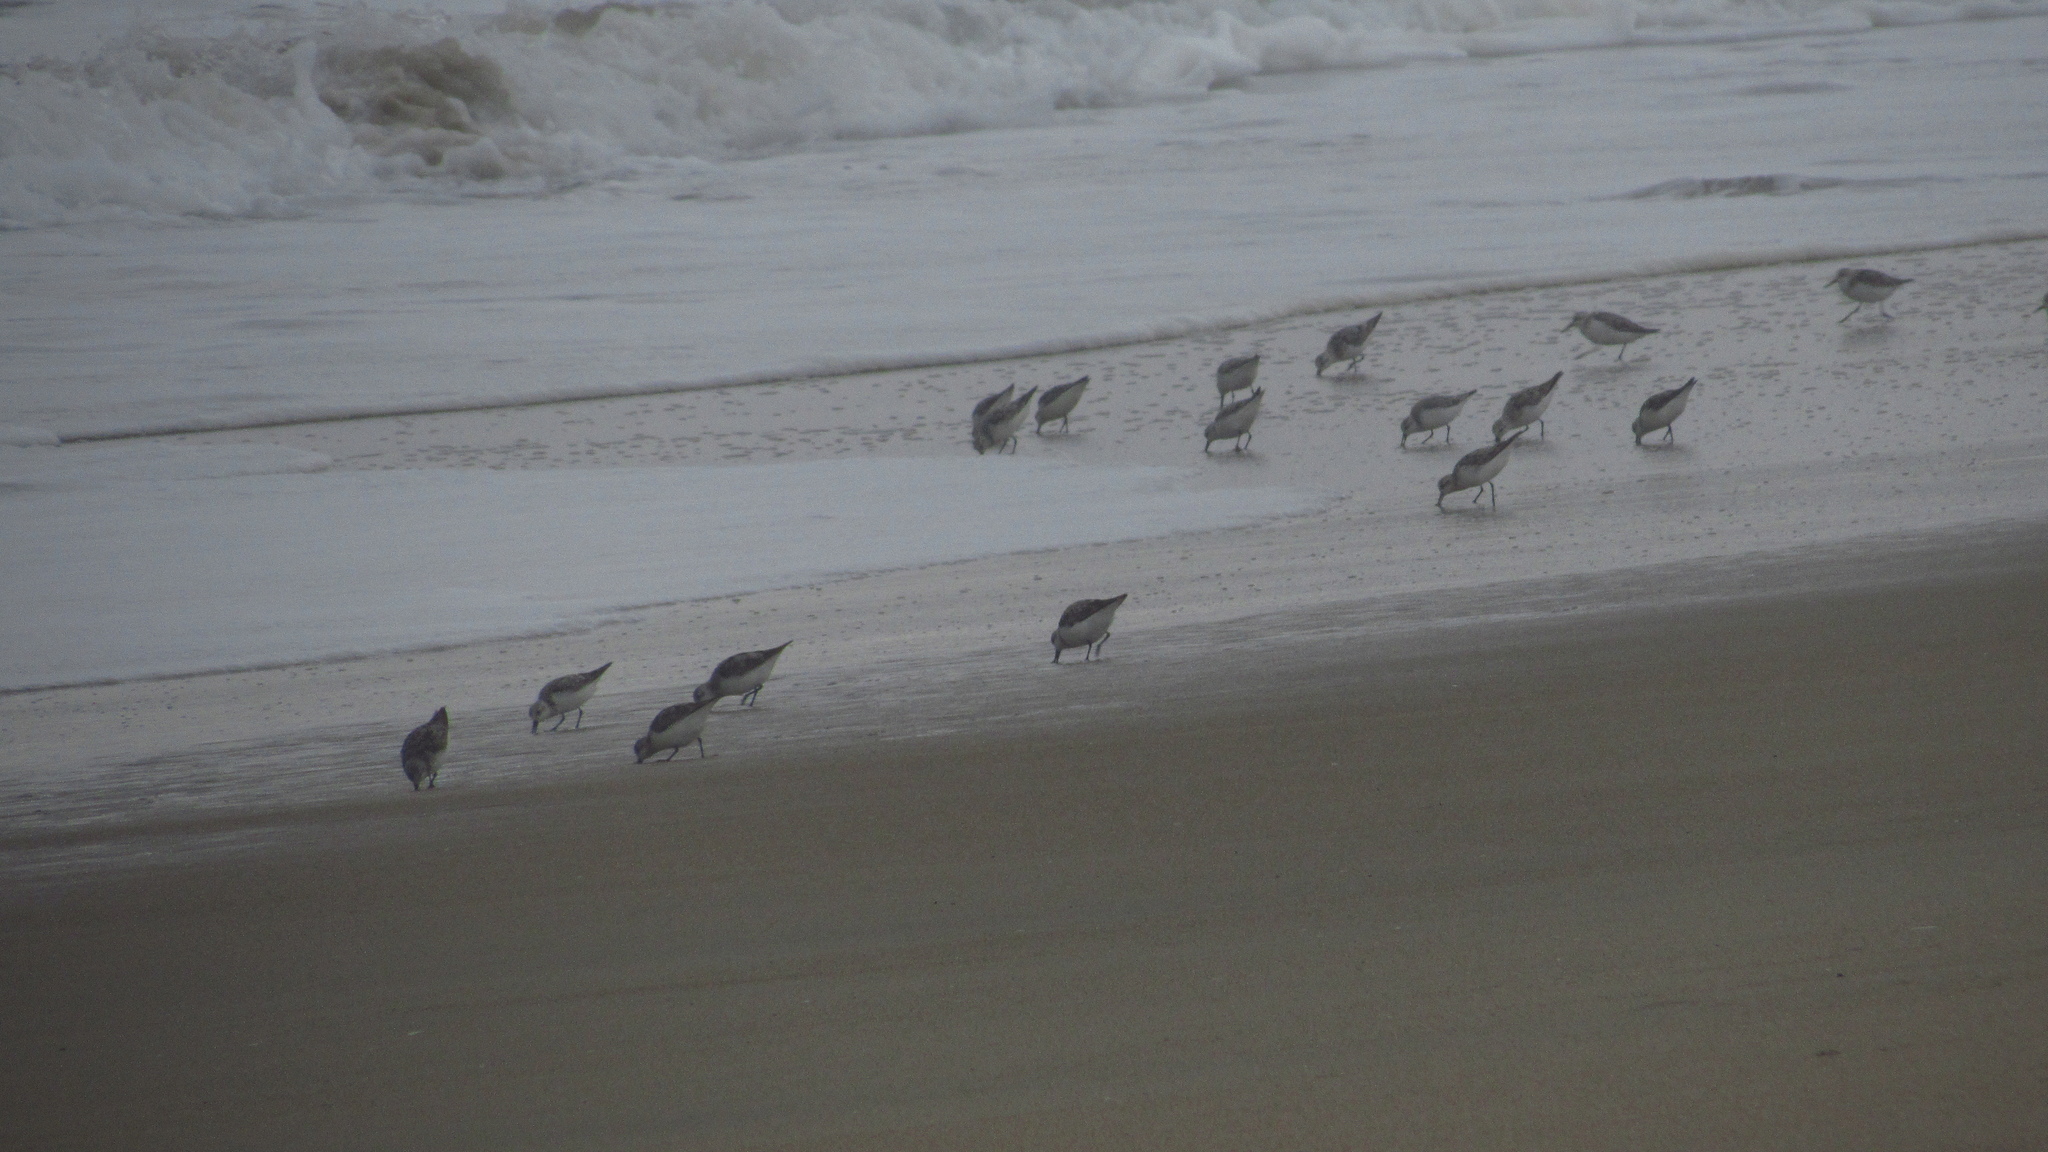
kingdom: Animalia
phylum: Chordata
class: Aves
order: Charadriiformes
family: Scolopacidae
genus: Calidris
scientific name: Calidris alba
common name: Sanderling
